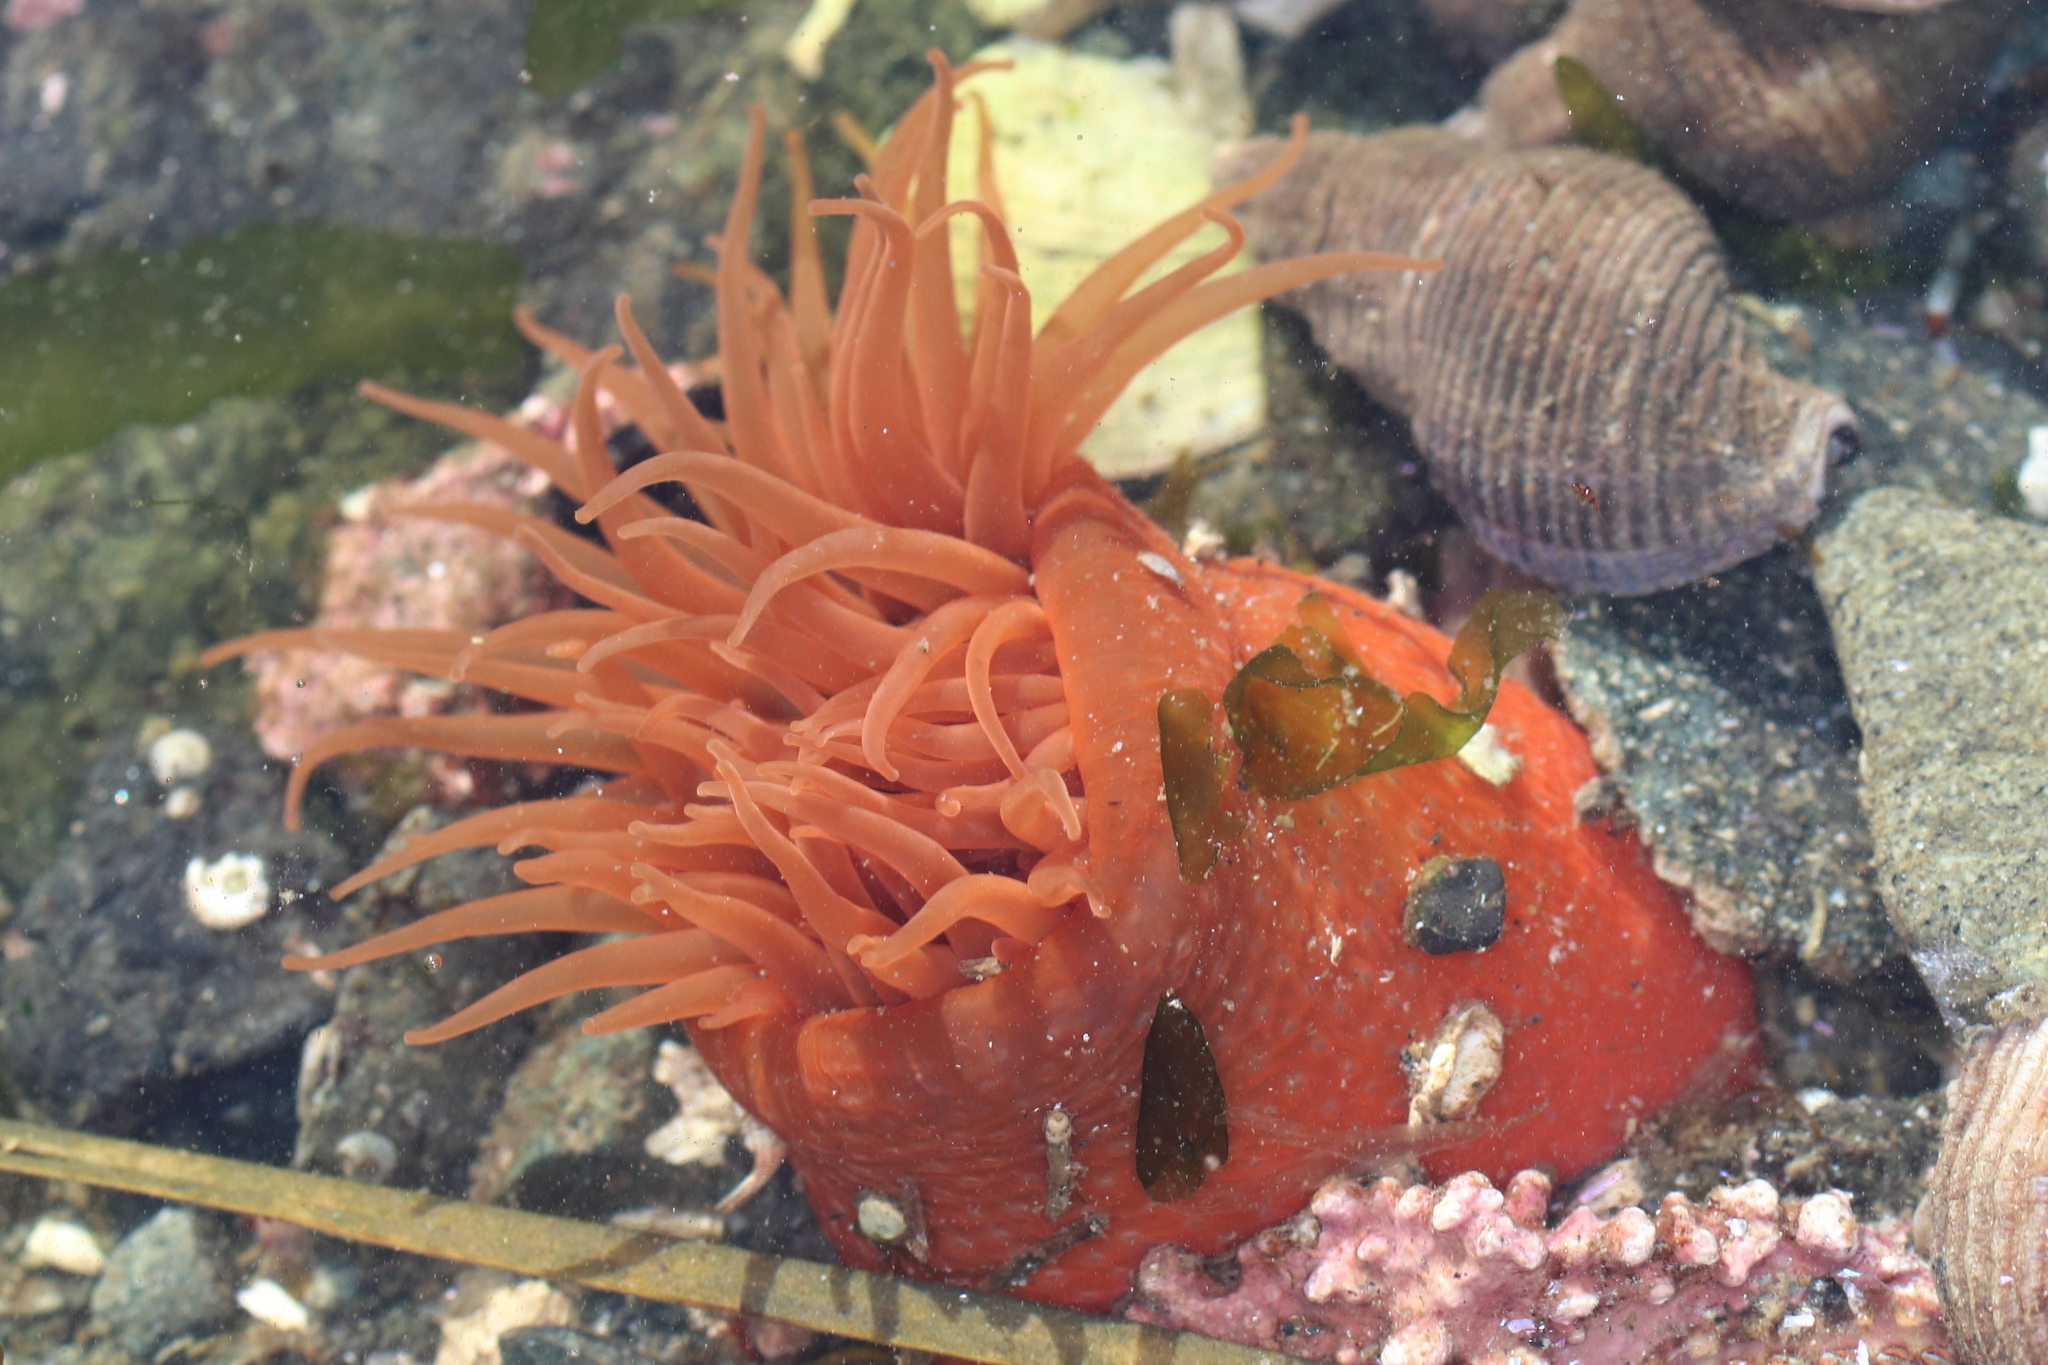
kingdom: Animalia
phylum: Cnidaria
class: Anthozoa
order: Actiniaria
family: Actiniidae
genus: Aulactinia
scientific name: Aulactinia vancouverensis
